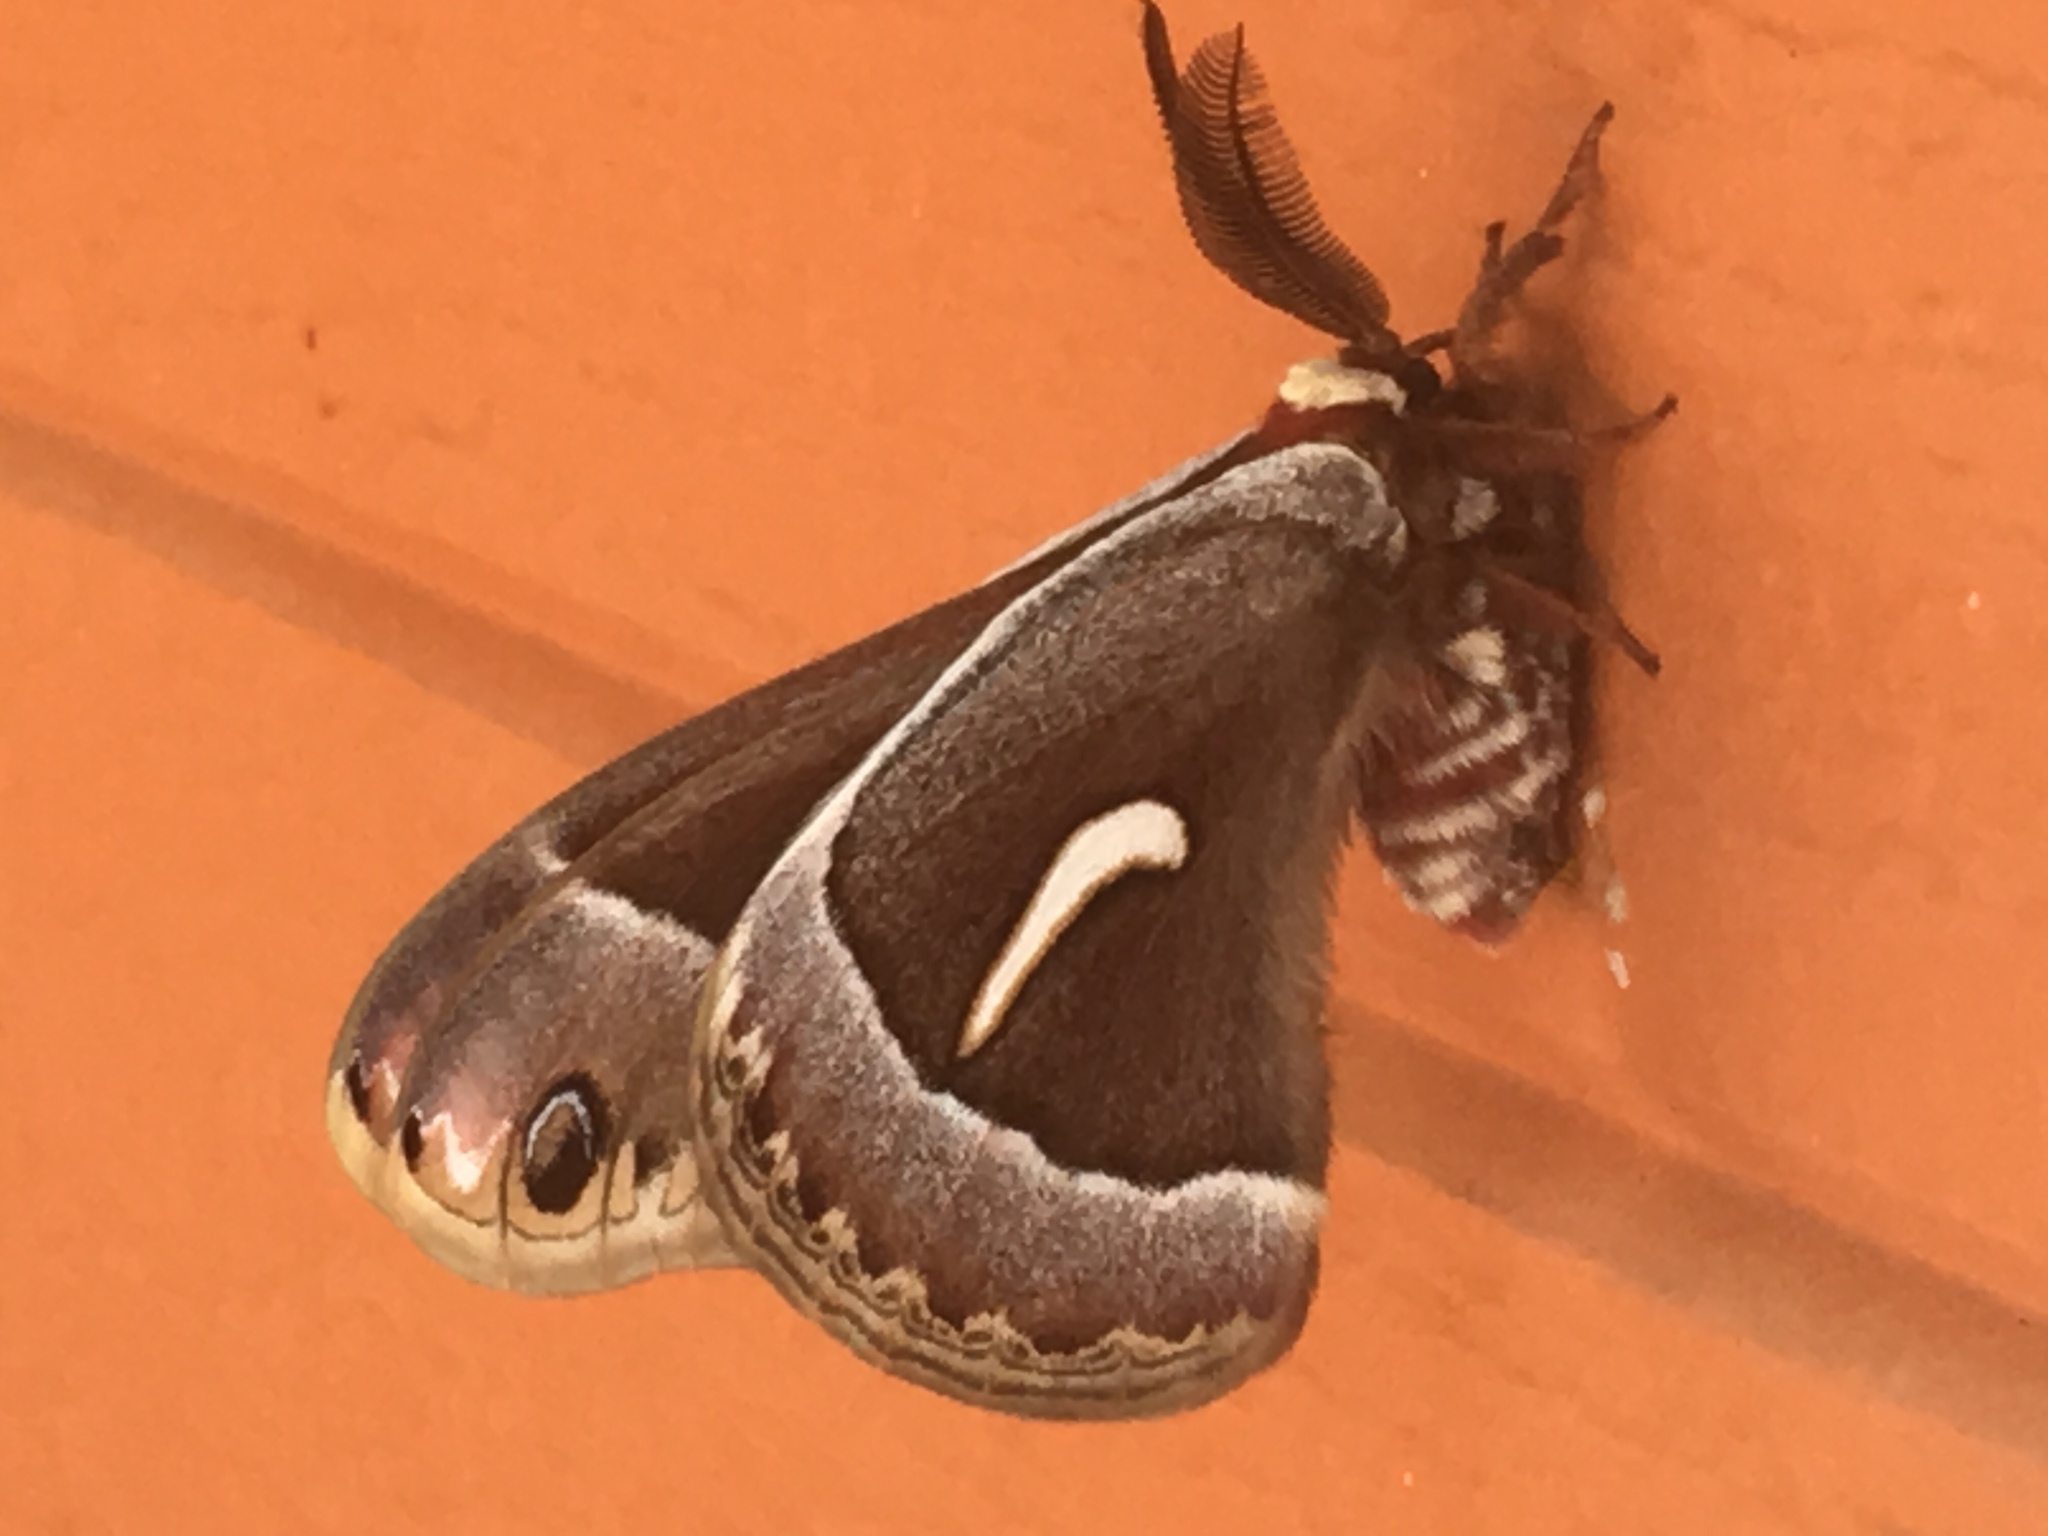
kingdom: Animalia
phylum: Arthropoda
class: Insecta
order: Lepidoptera
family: Saturniidae
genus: Hyalophora
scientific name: Hyalophora euryalus
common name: Ceanothus silkmoth
